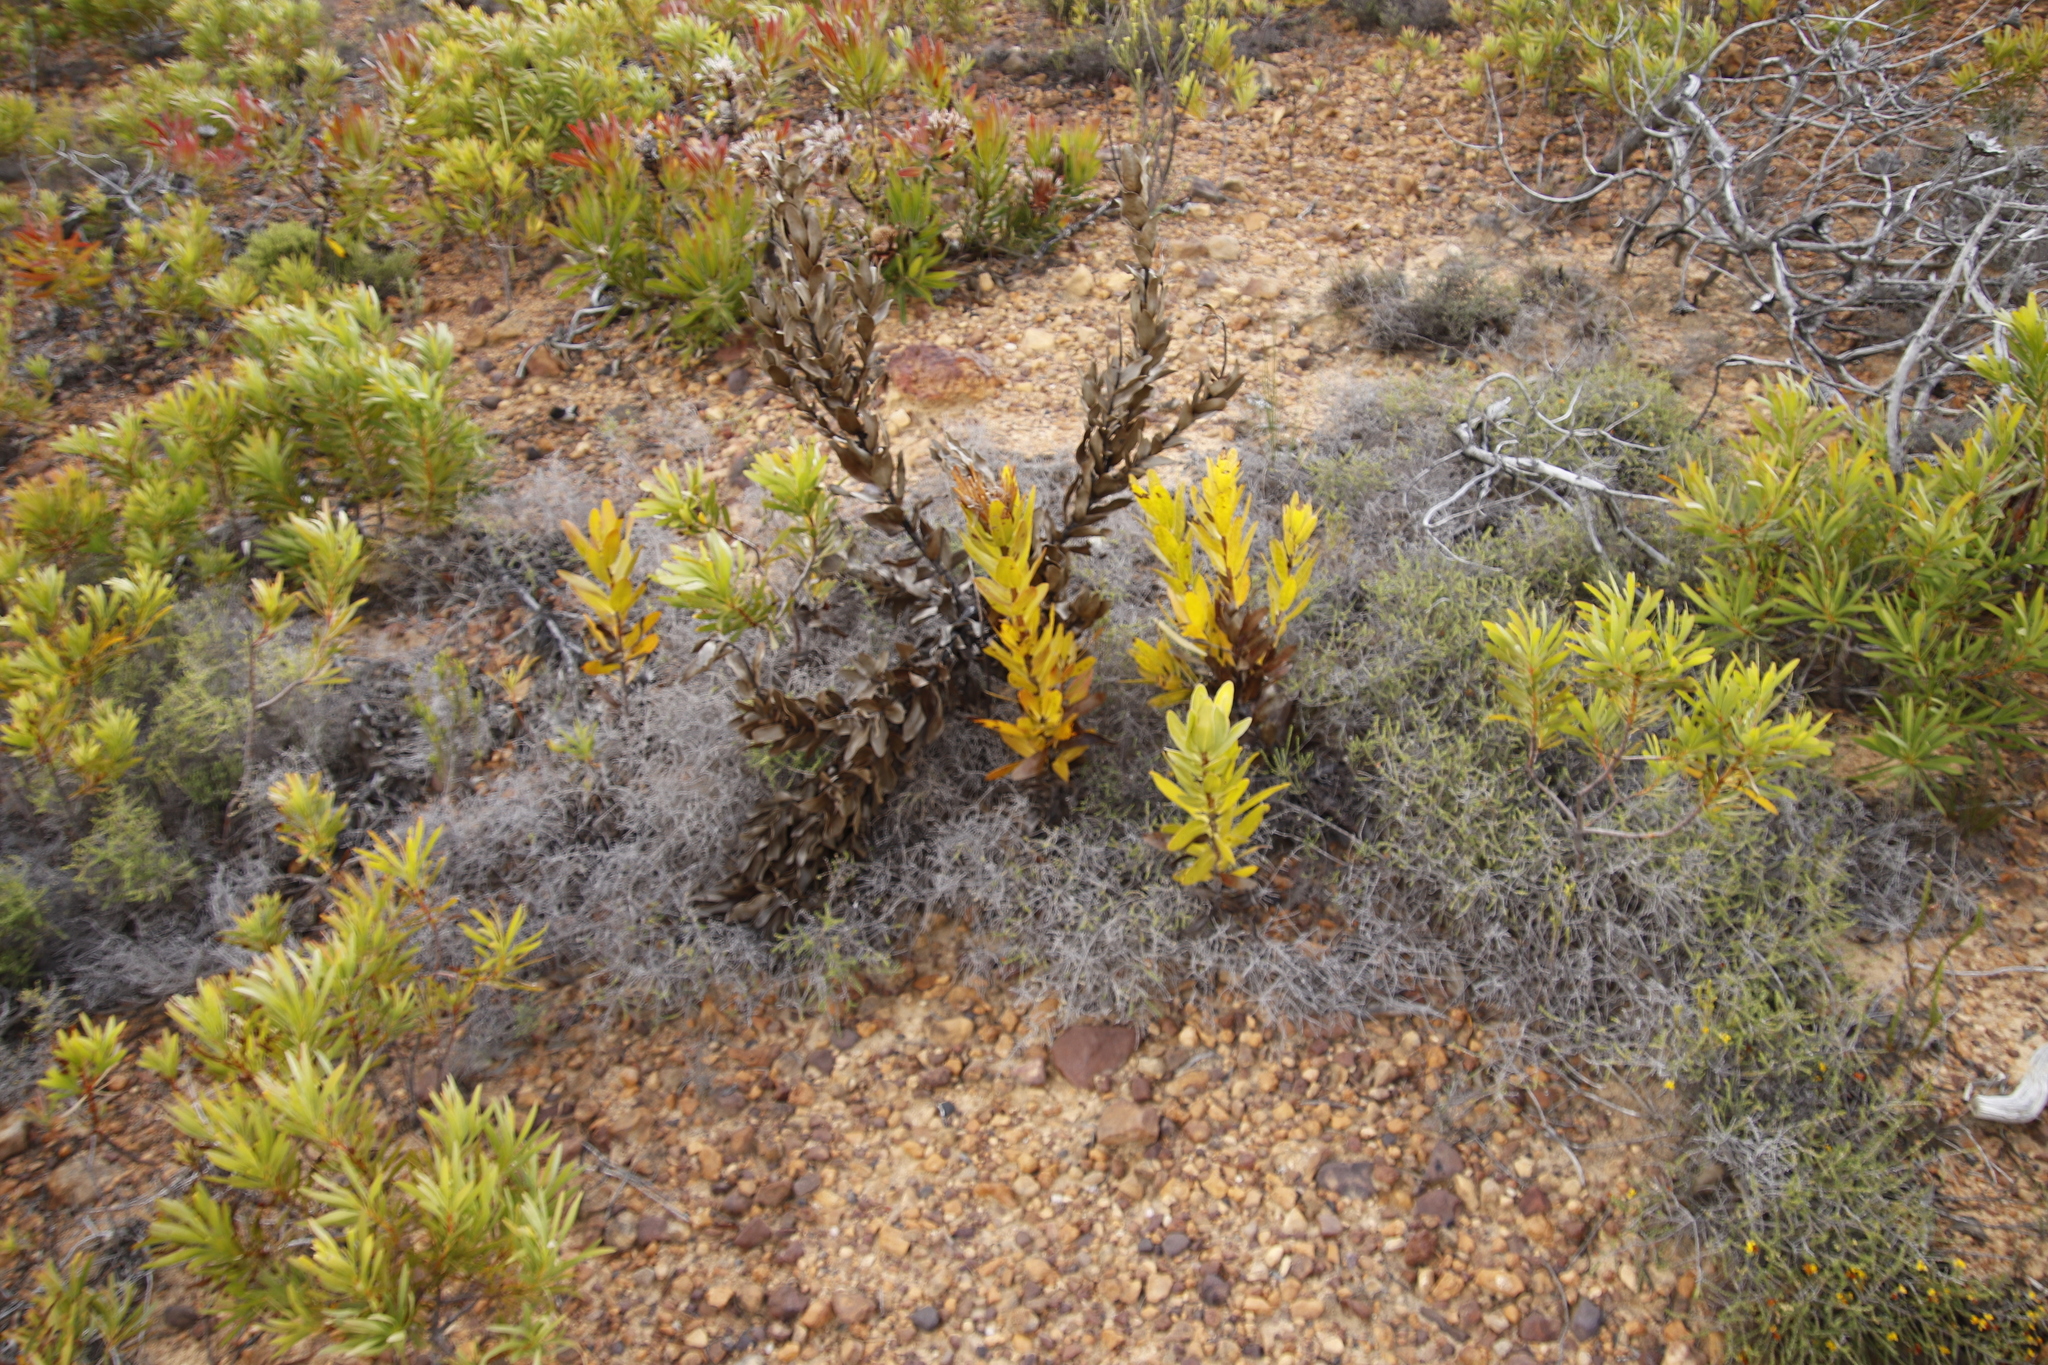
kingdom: Plantae
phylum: Tracheophyta
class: Magnoliopsida
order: Proteales
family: Proteaceae
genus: Protea
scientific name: Protea compacta
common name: Bot river protea
